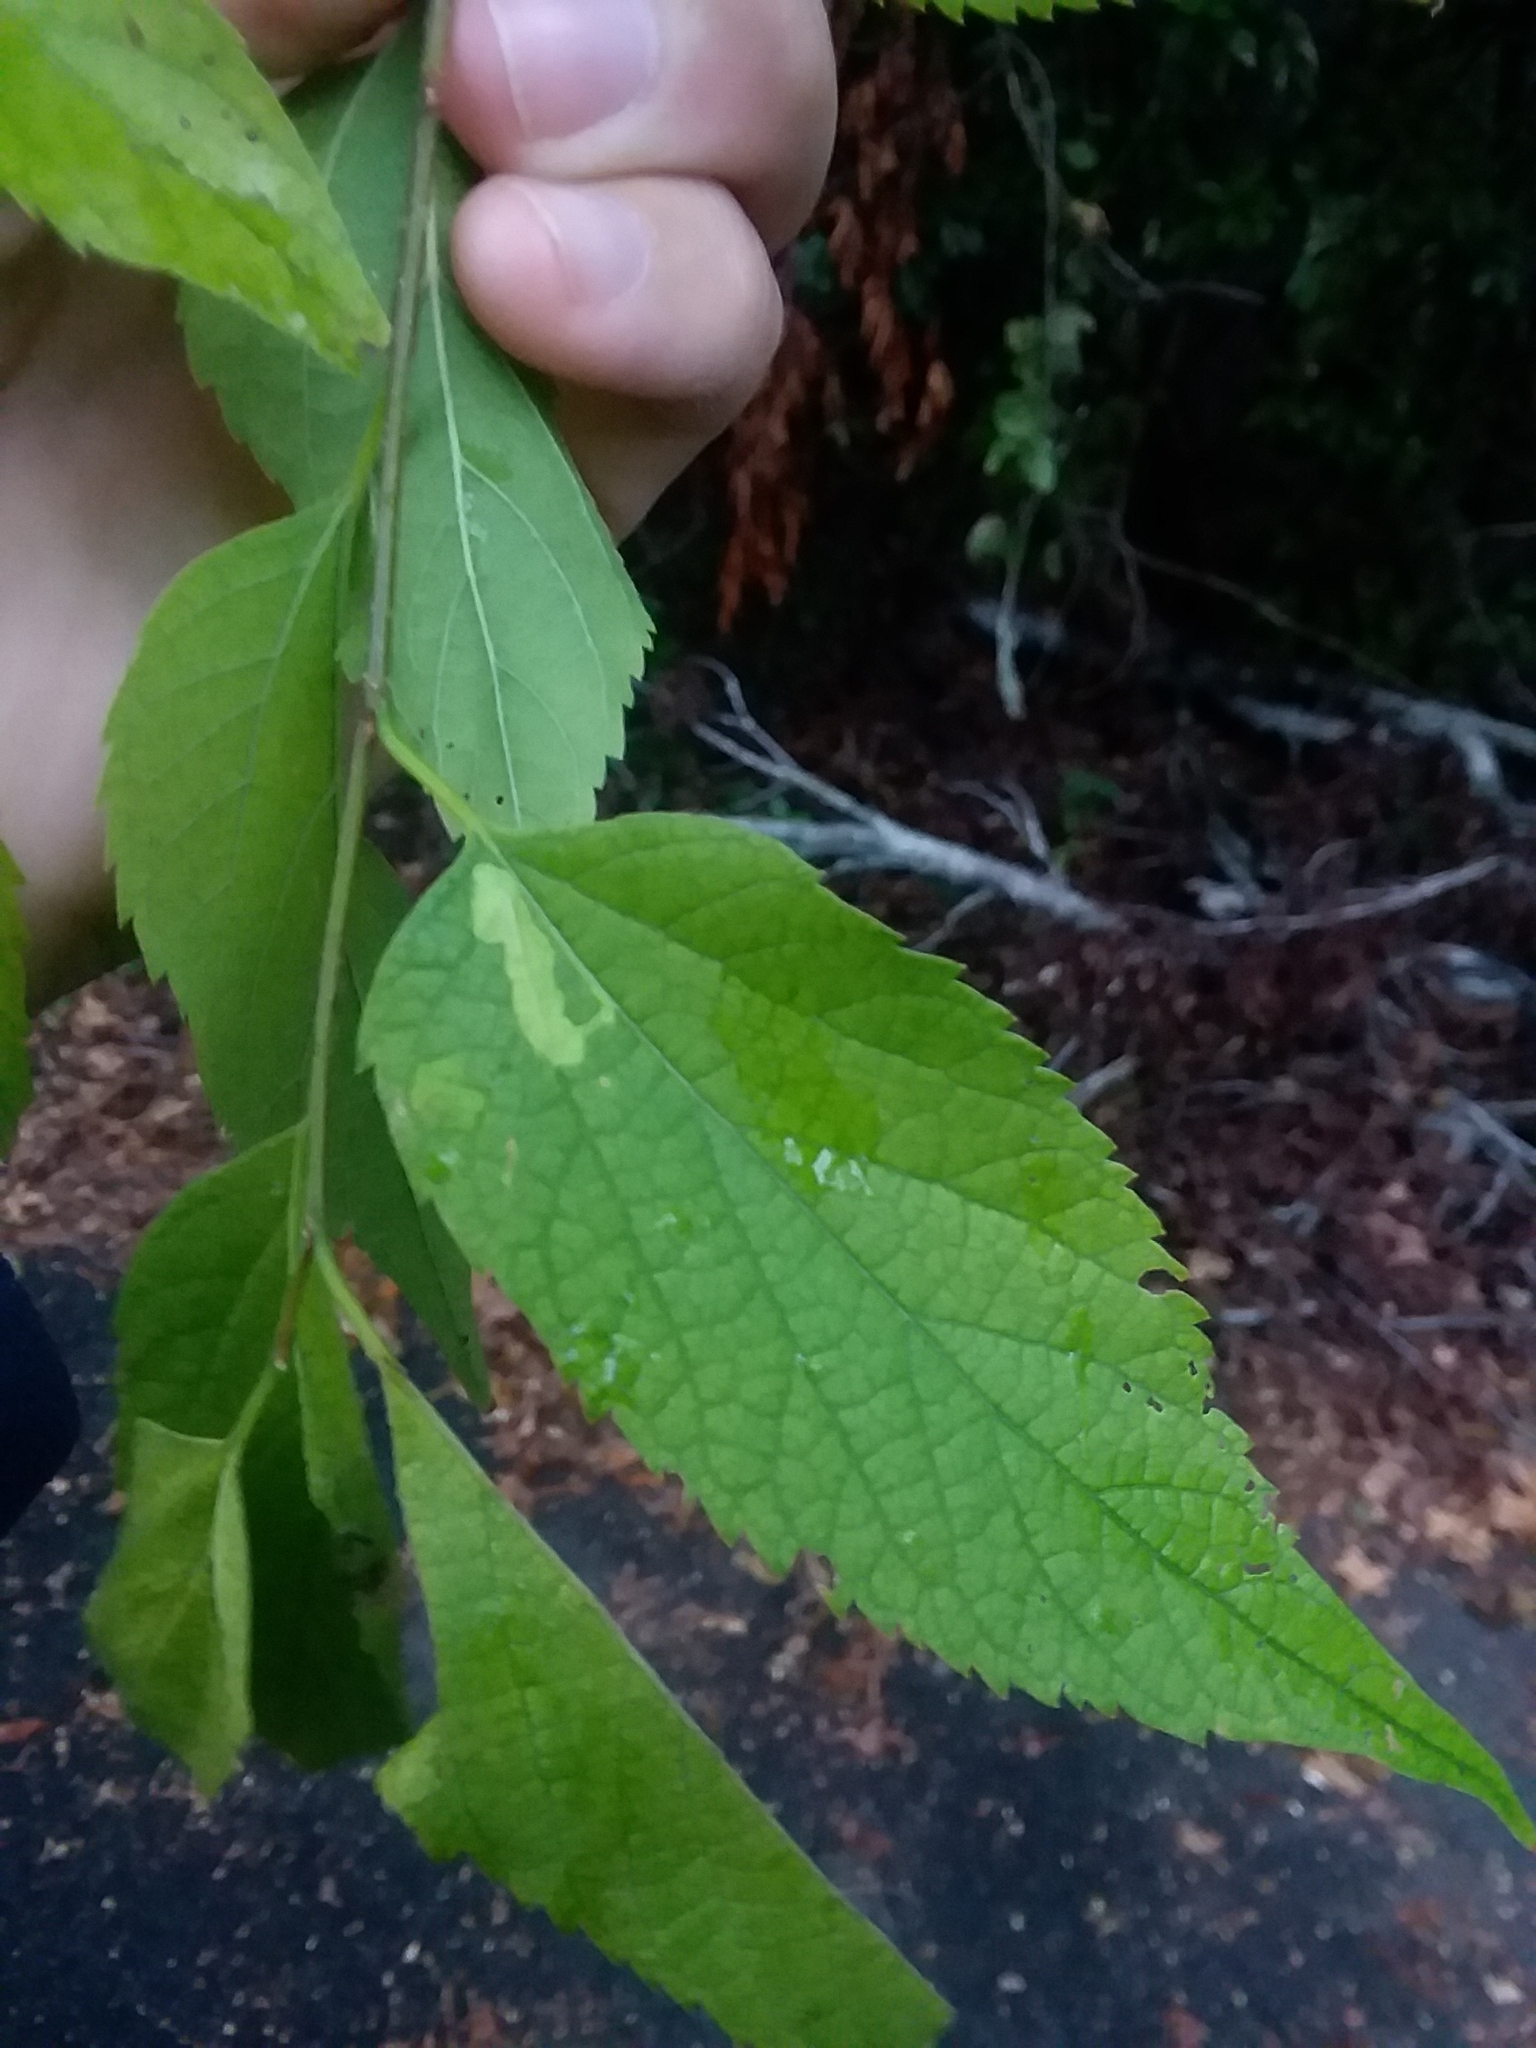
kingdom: Plantae
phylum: Tracheophyta
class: Magnoliopsida
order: Rosales
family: Cannabaceae
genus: Celtis
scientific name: Celtis
